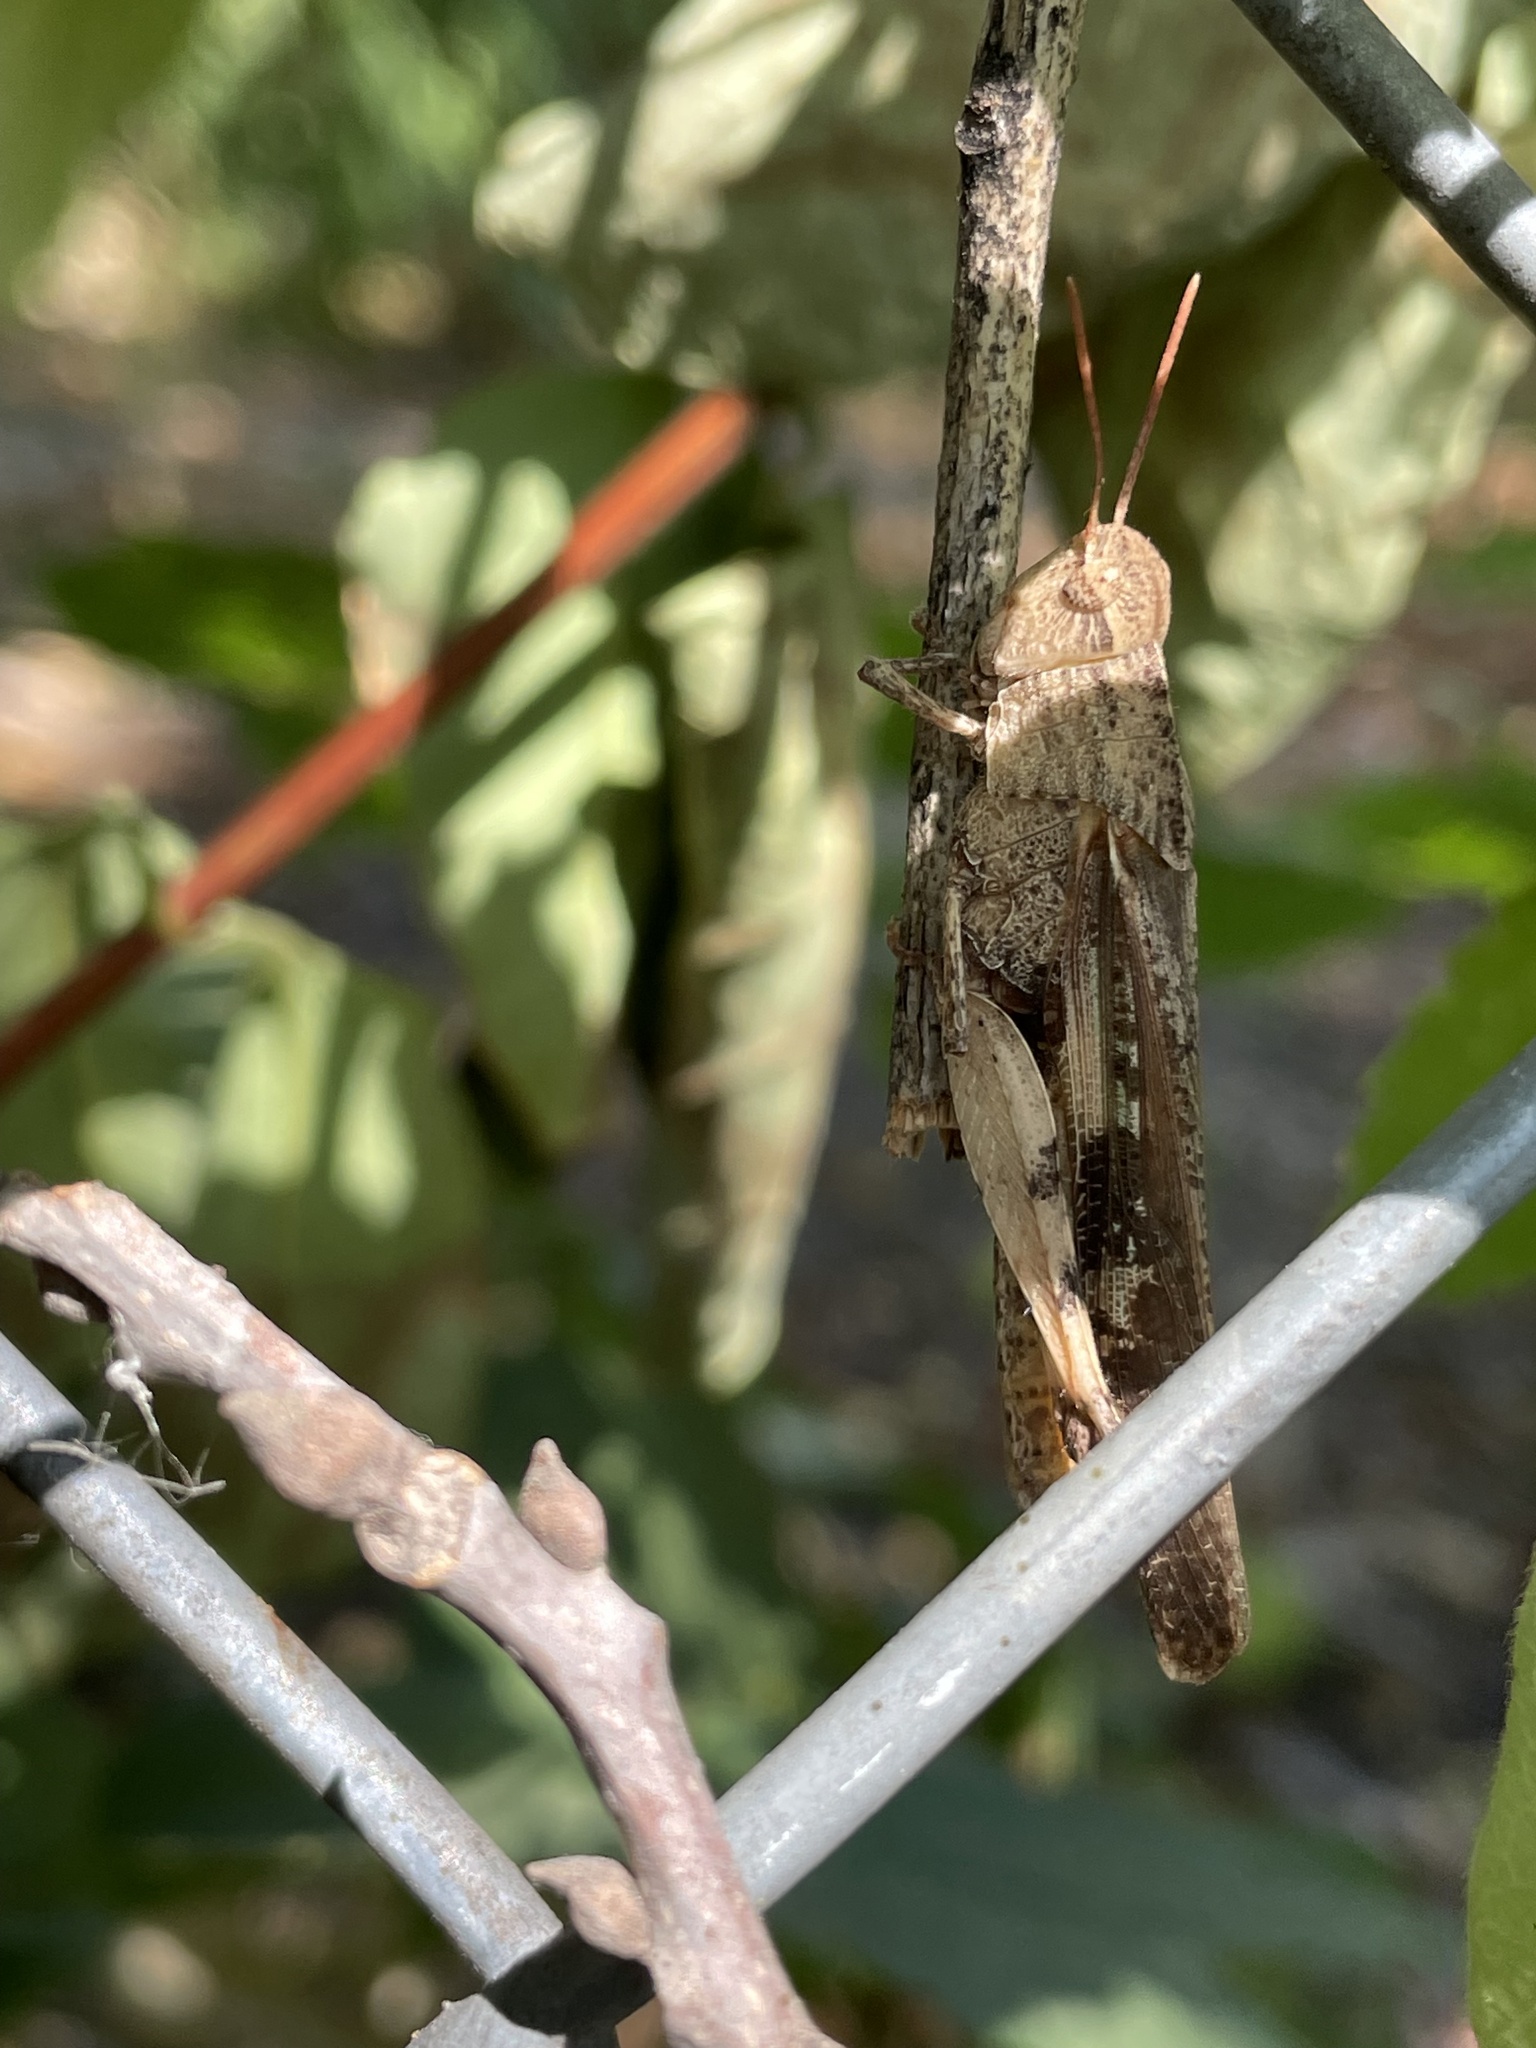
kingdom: Animalia
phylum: Arthropoda
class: Insecta
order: Orthoptera
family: Acrididae
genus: Chortophaga
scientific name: Chortophaga viridifasciata
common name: Green-striped grasshopper
